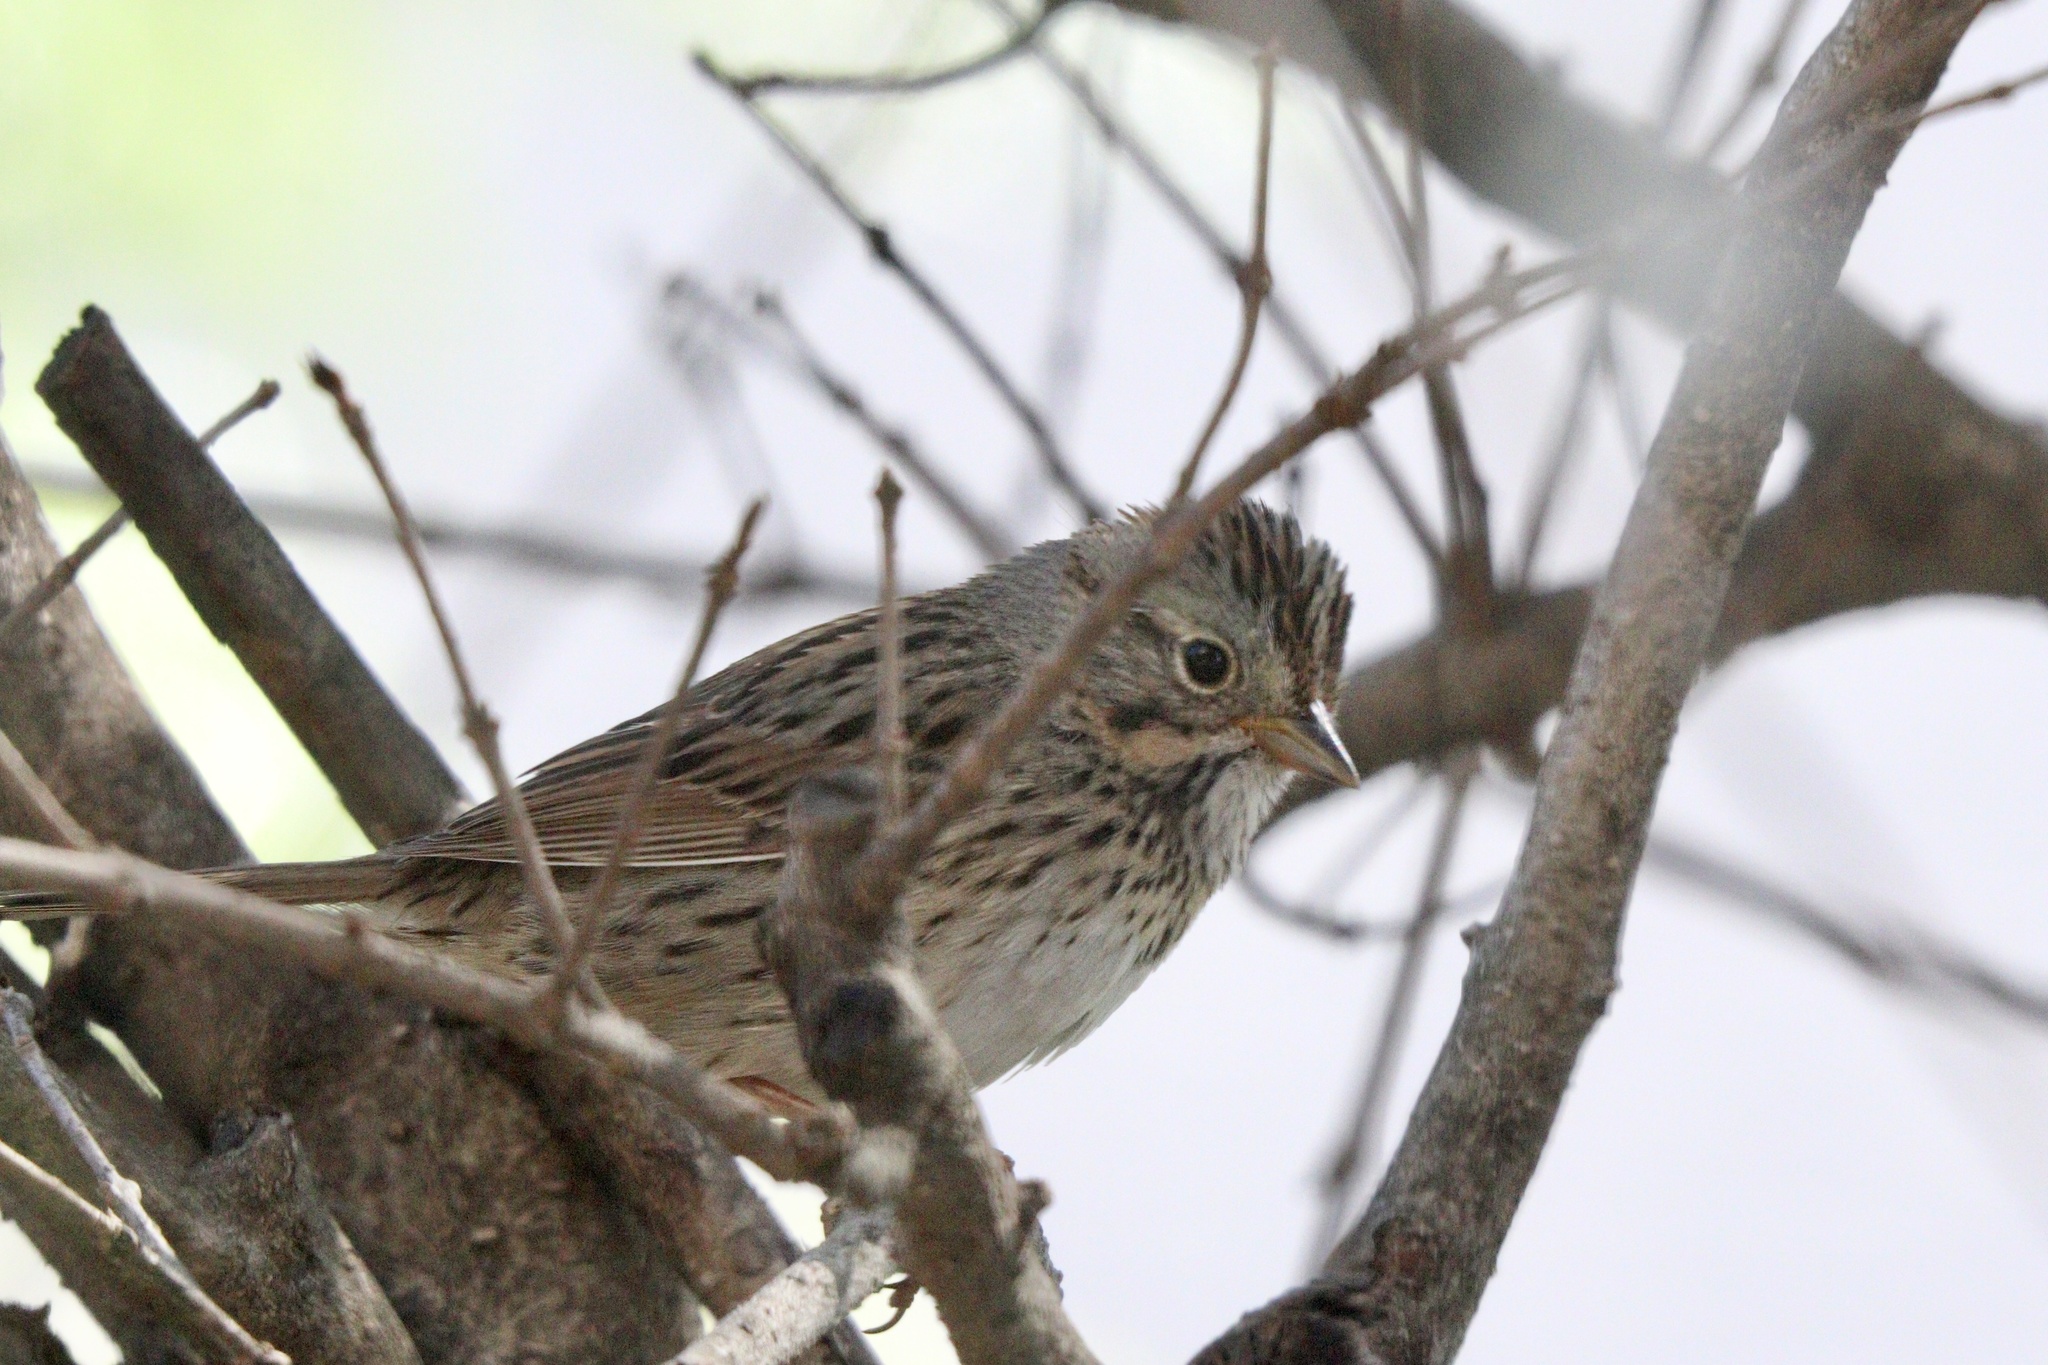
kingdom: Animalia
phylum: Chordata
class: Aves
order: Passeriformes
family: Passerellidae
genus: Melospiza
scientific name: Melospiza lincolnii
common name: Lincoln's sparrow
